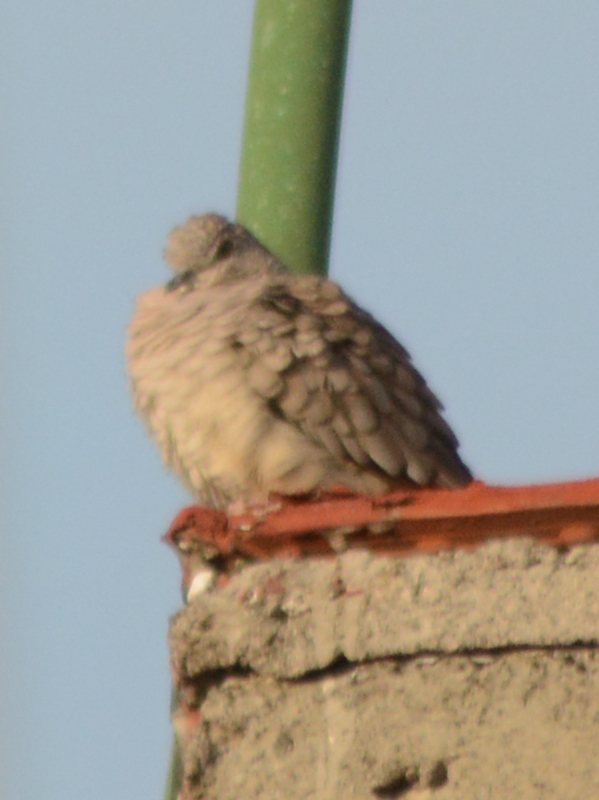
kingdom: Animalia
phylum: Chordata
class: Aves
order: Columbiformes
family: Columbidae
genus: Columbina
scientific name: Columbina inca
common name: Inca dove
